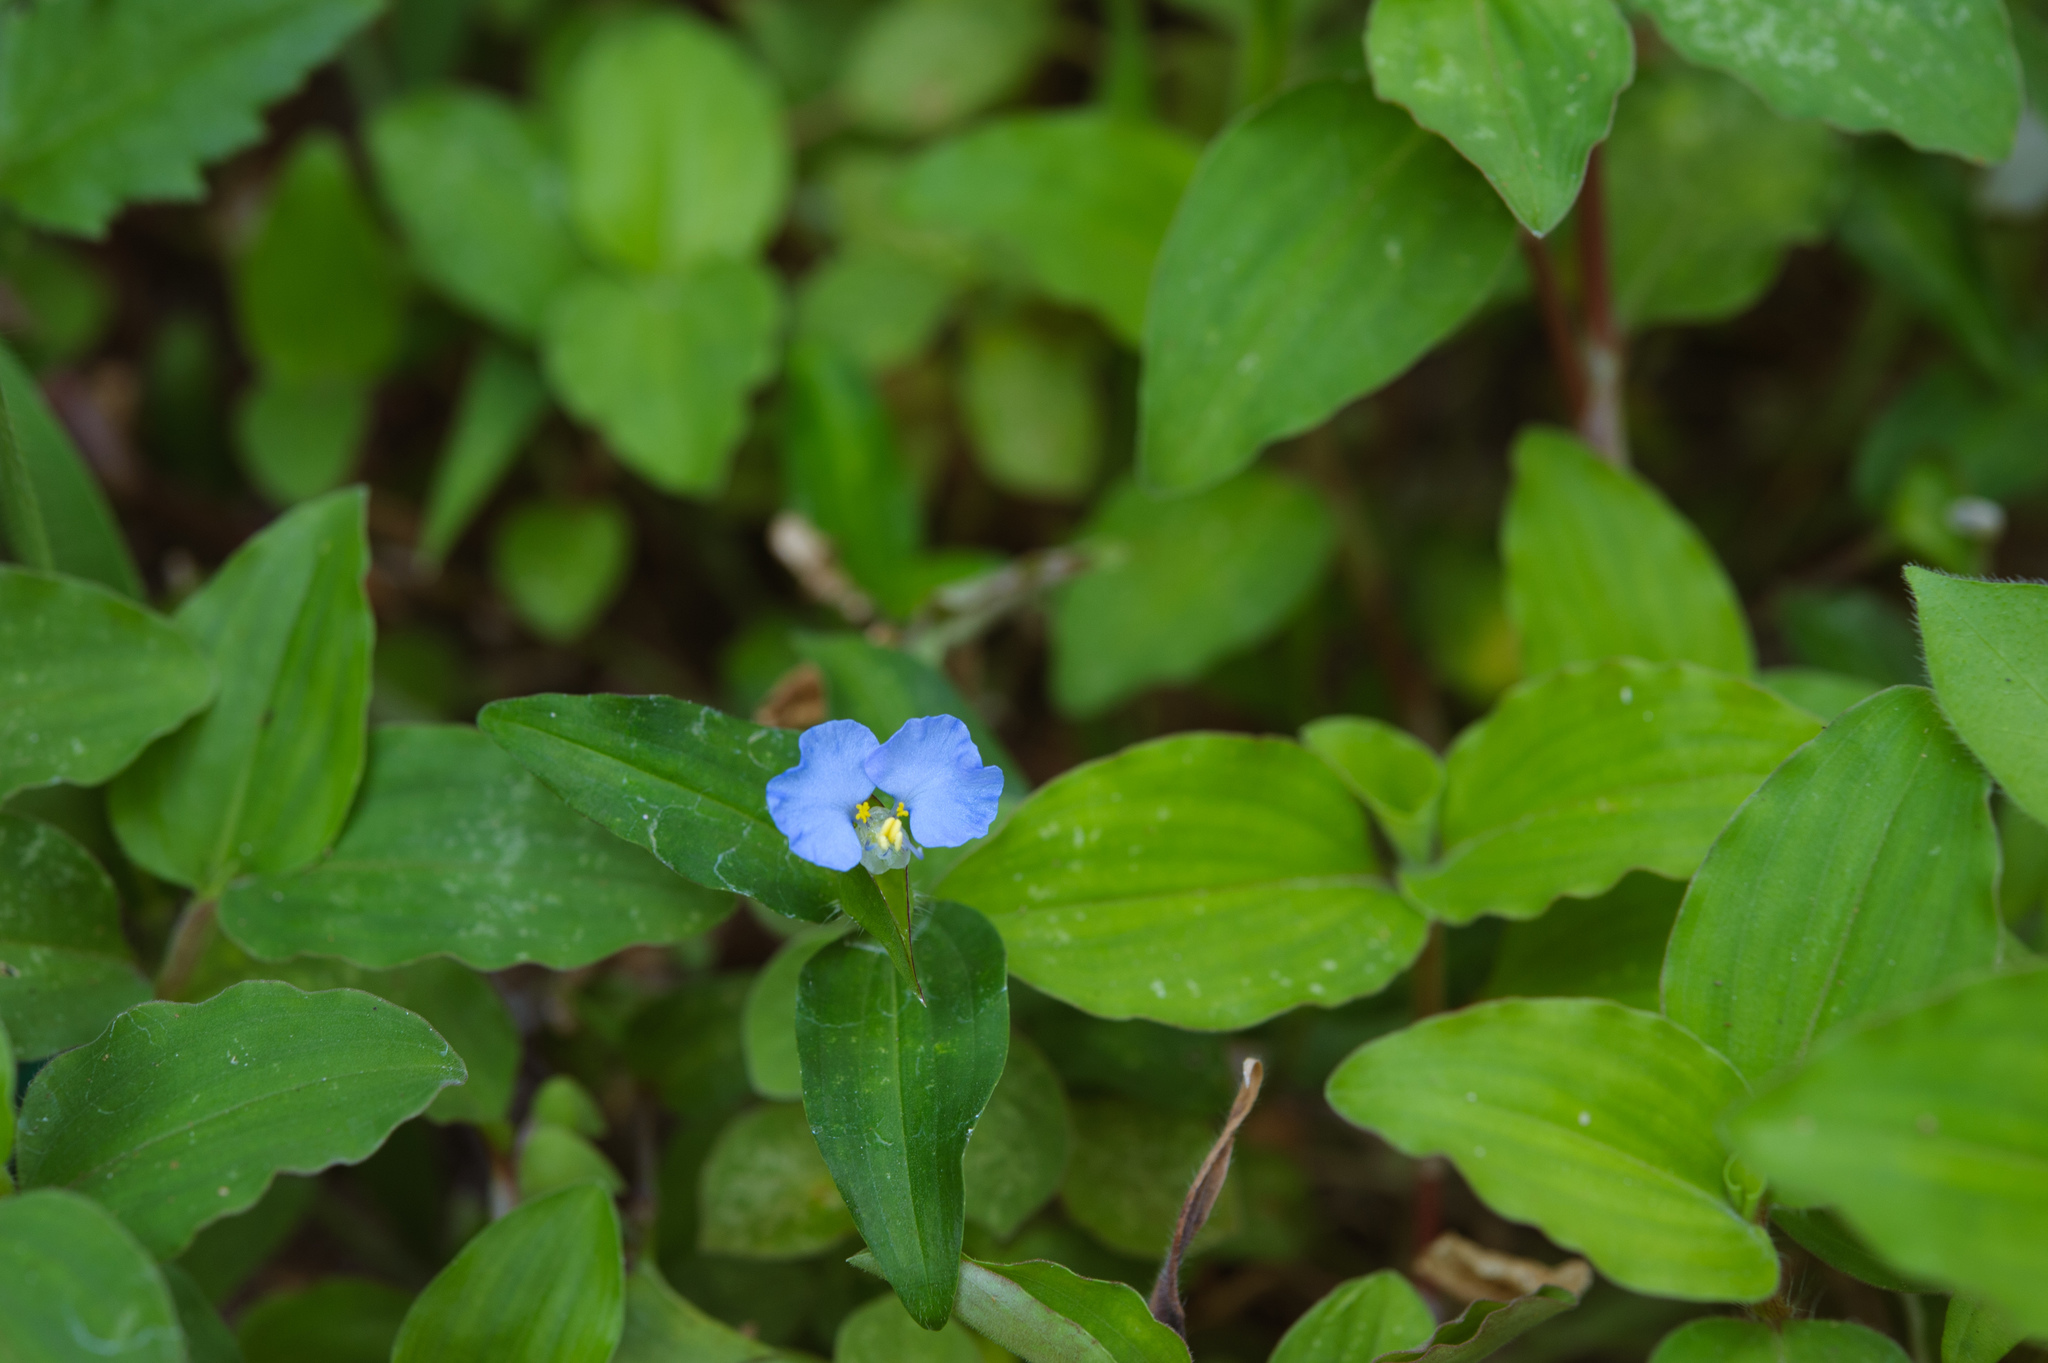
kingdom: Plantae
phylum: Tracheophyta
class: Liliopsida
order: Commelinales
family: Commelinaceae
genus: Commelina
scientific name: Commelina benghalensis
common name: Jio
